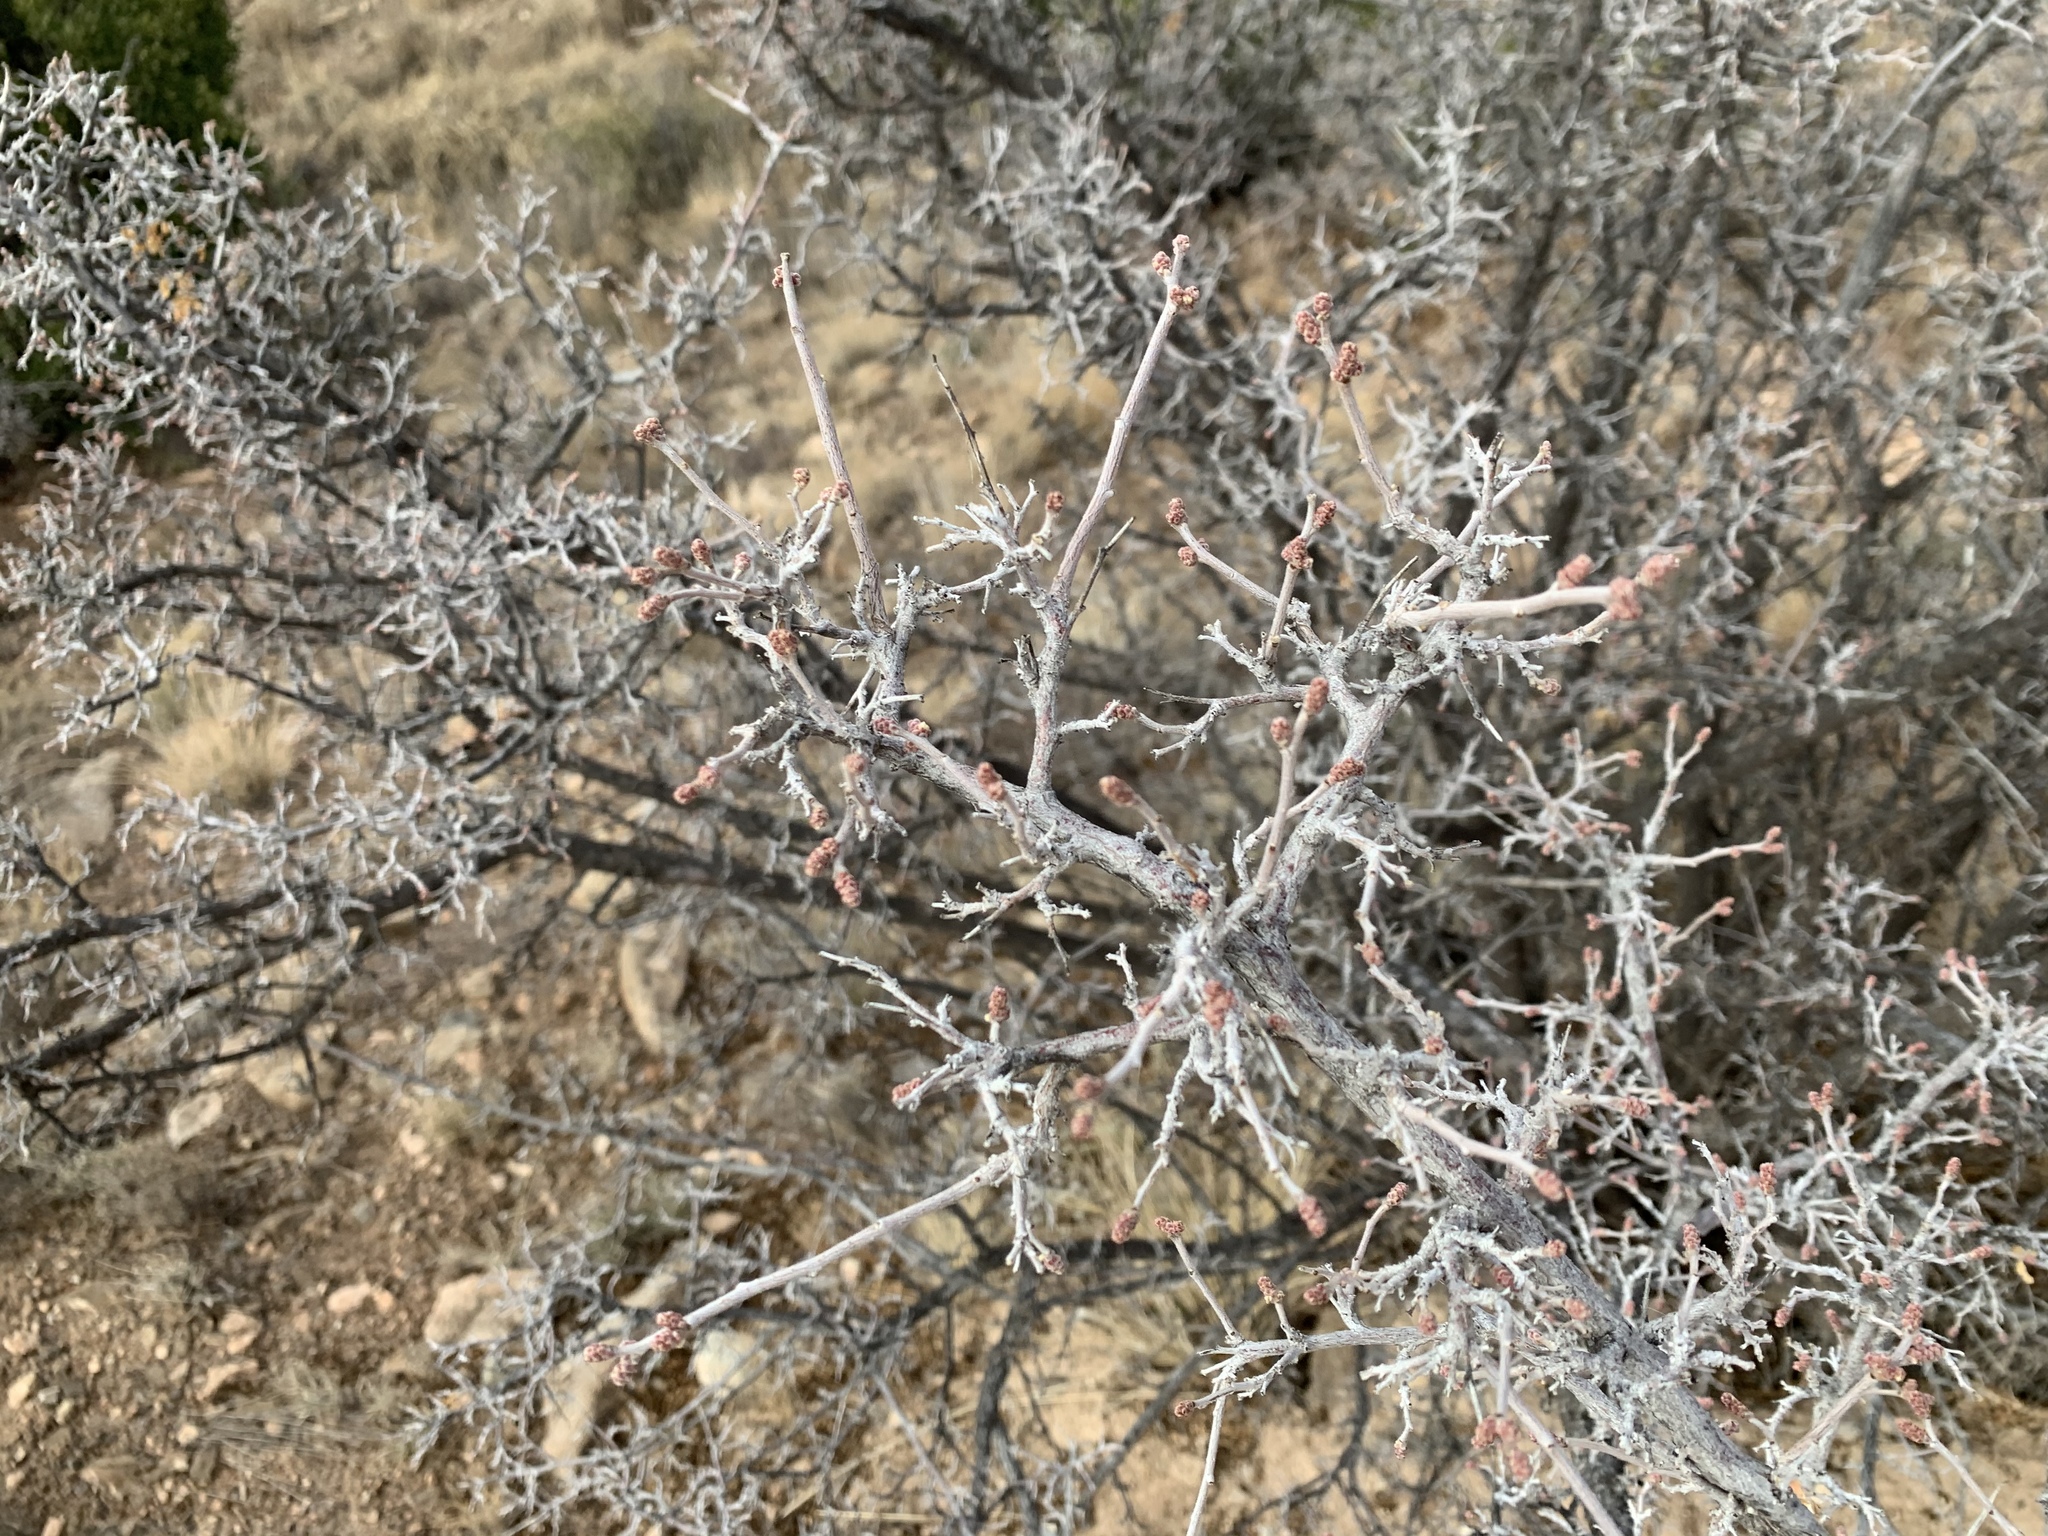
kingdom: Plantae
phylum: Tracheophyta
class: Magnoliopsida
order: Sapindales
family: Anacardiaceae
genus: Rhus
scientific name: Rhus microphylla
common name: Desert sumac
